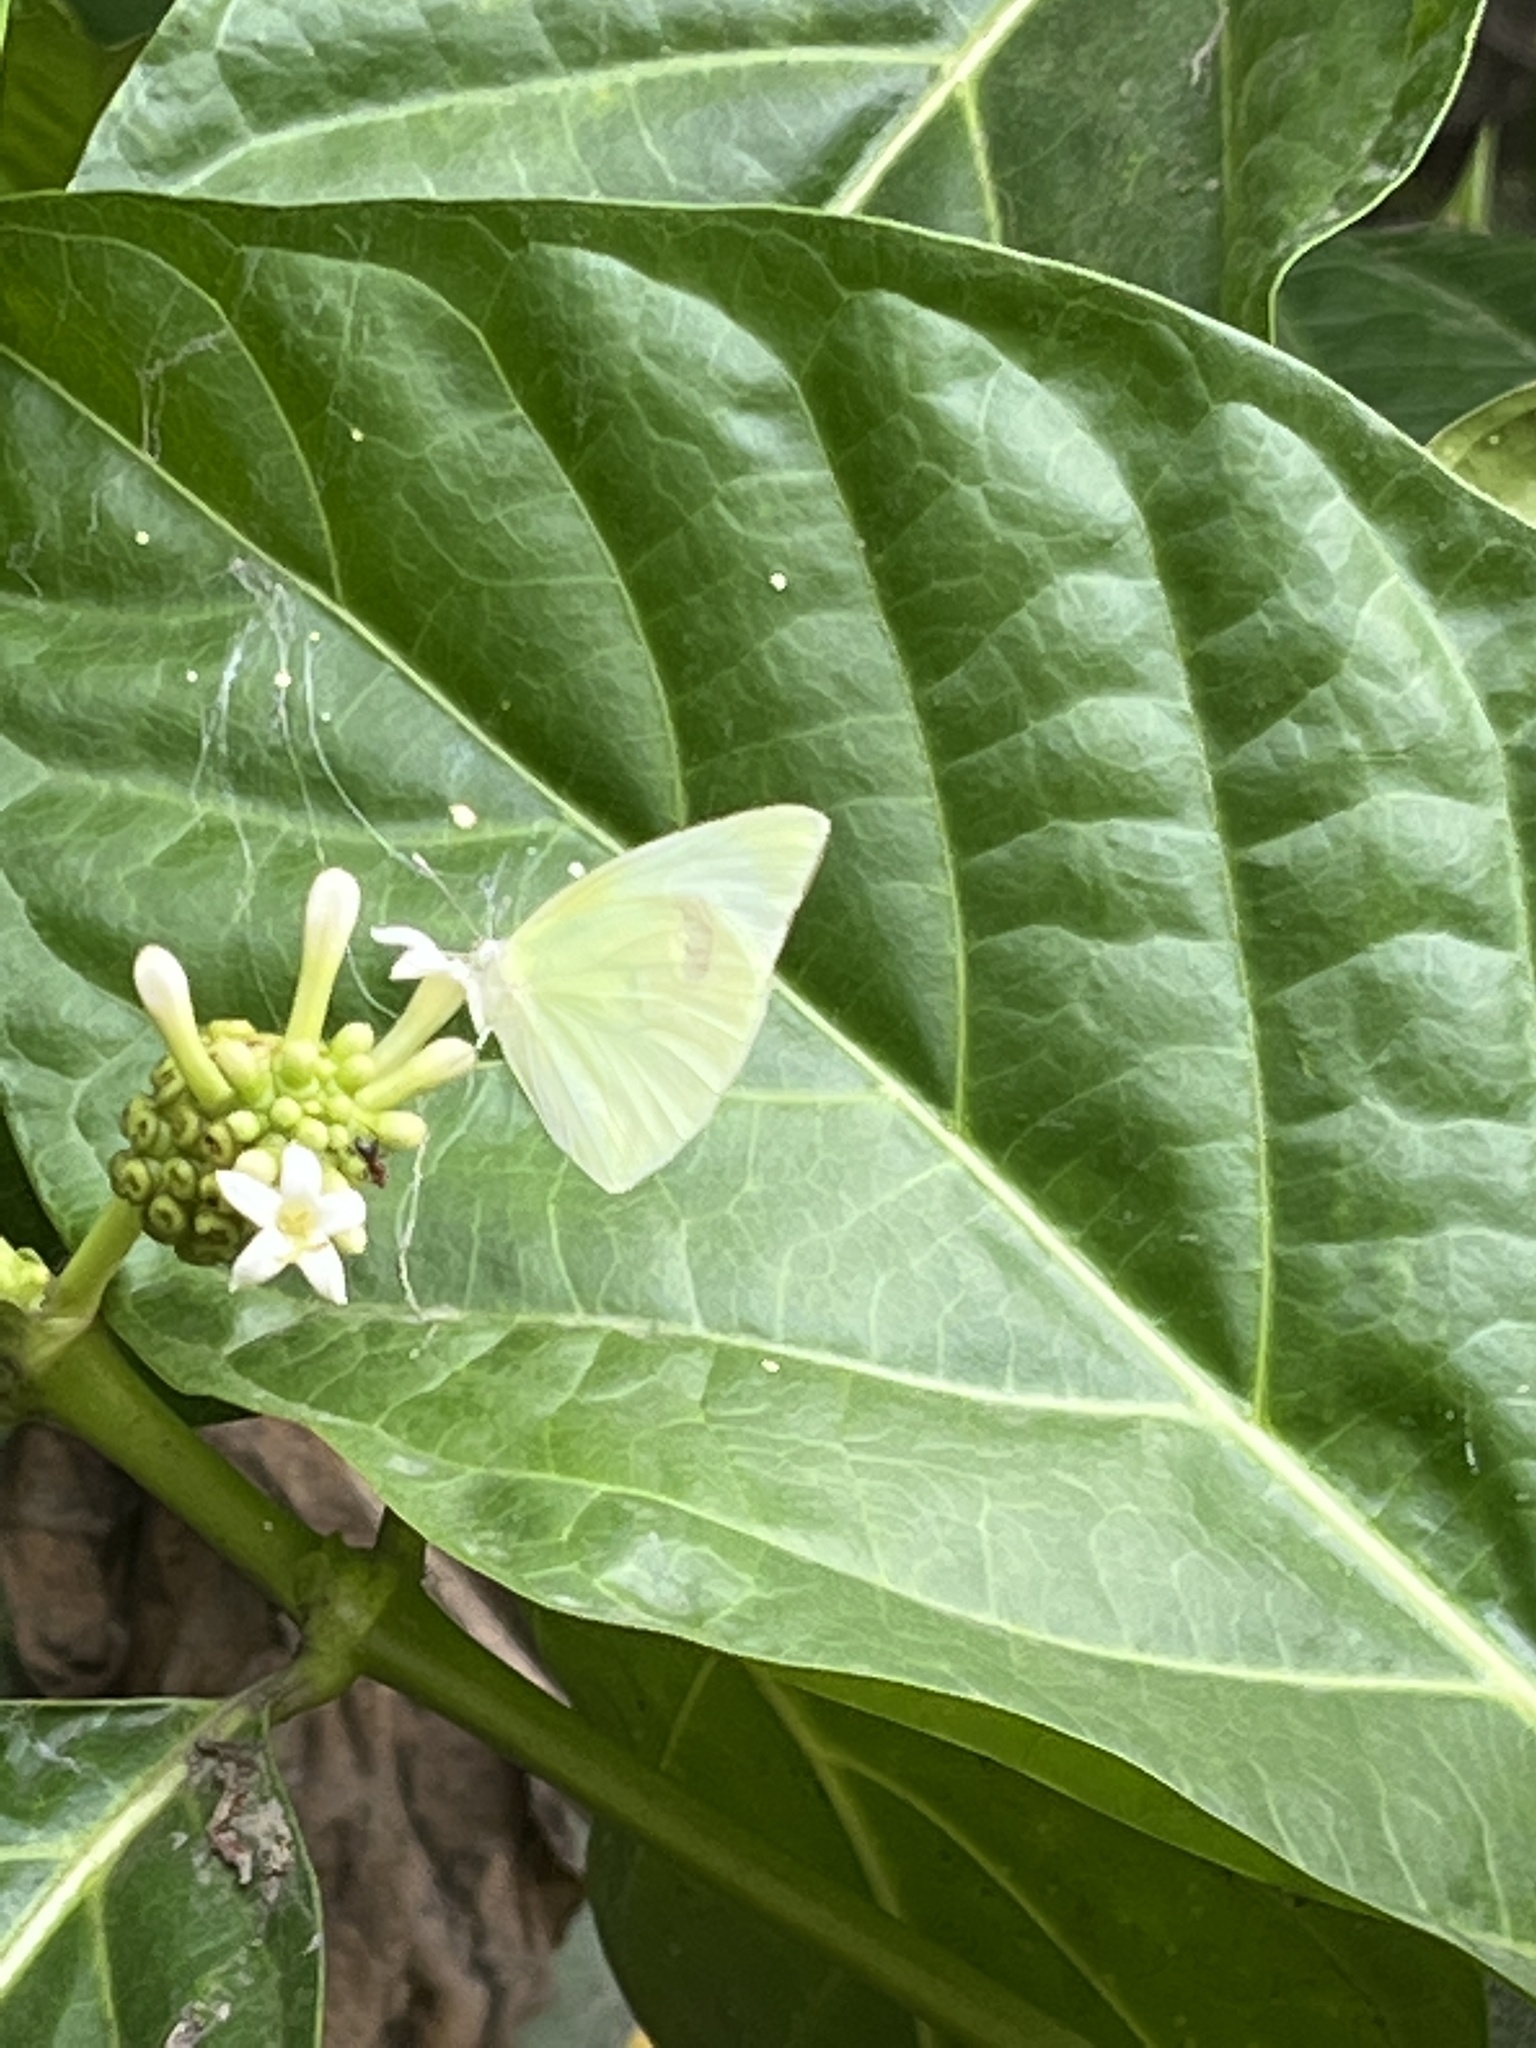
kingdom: Animalia
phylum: Arthropoda
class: Insecta
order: Lepidoptera
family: Pieridae
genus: Kricogonia
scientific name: Kricogonia lyside
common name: Guayacan sulphur,
